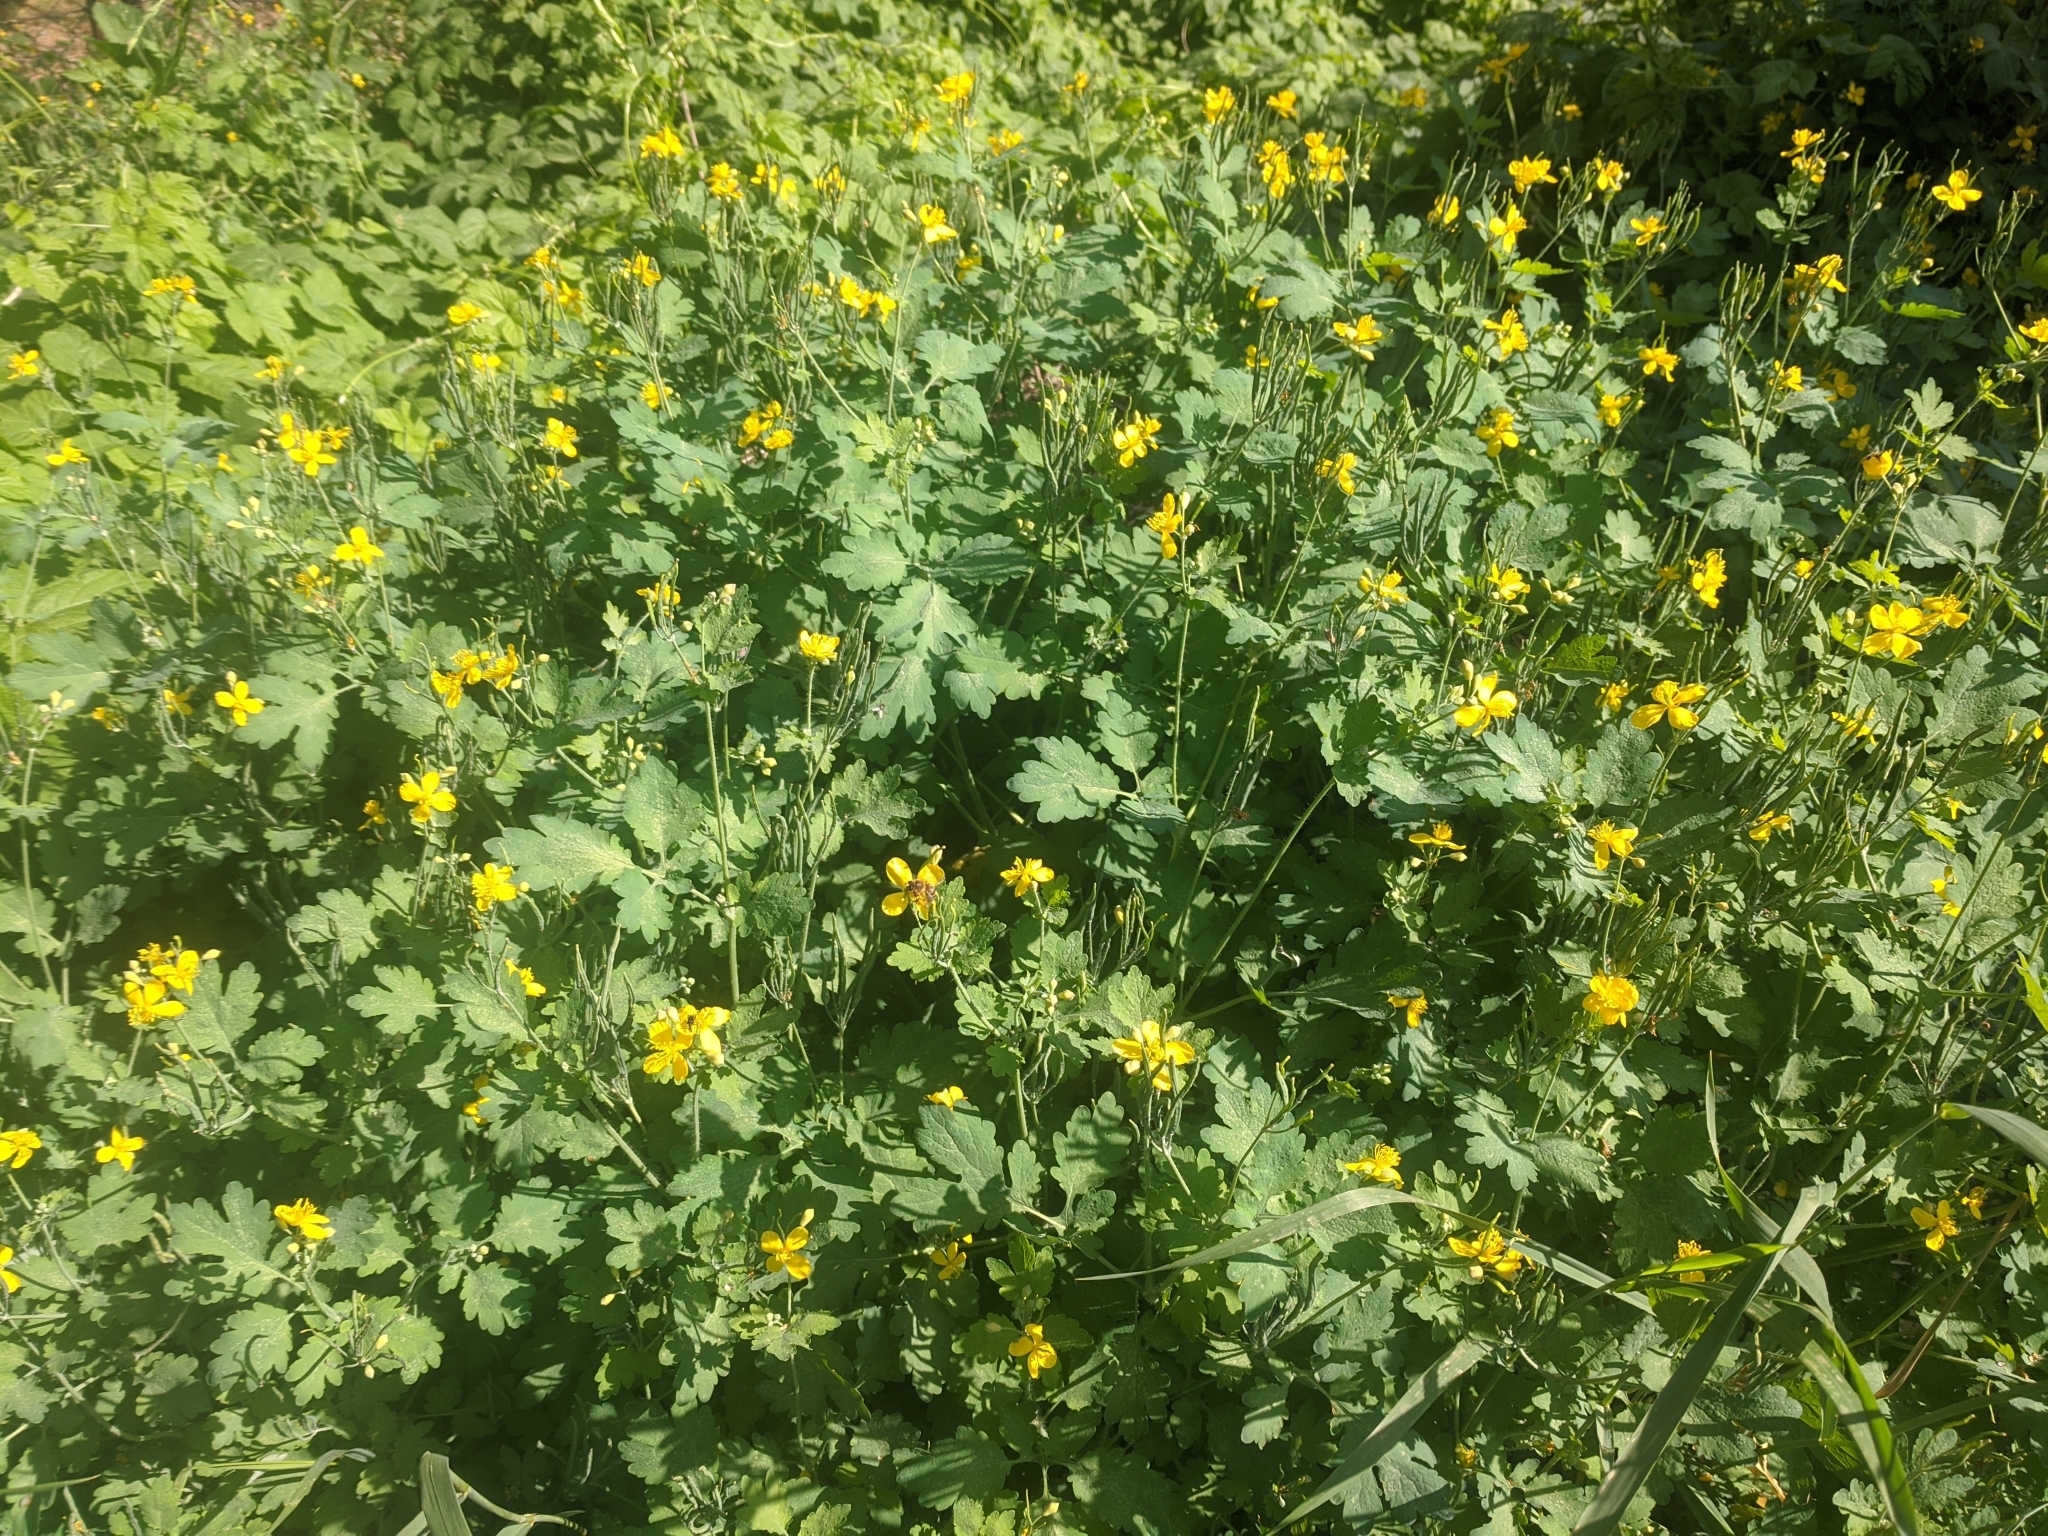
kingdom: Plantae
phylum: Tracheophyta
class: Magnoliopsida
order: Ranunculales
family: Papaveraceae
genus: Chelidonium
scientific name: Chelidonium majus
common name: Greater celandine
